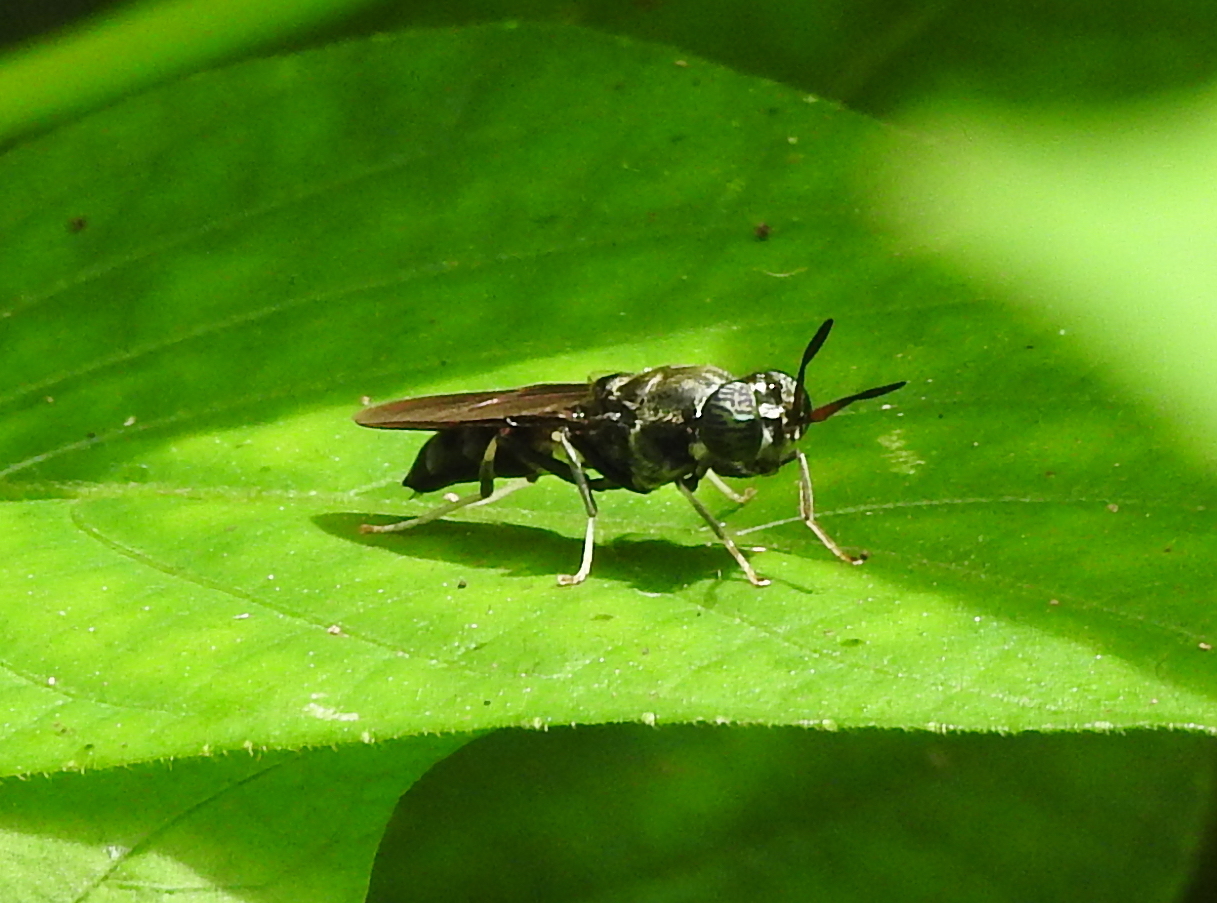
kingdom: Animalia
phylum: Arthropoda
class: Insecta
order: Diptera
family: Stratiomyidae
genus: Hermetia
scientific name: Hermetia illucens
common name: Black soldier fly
